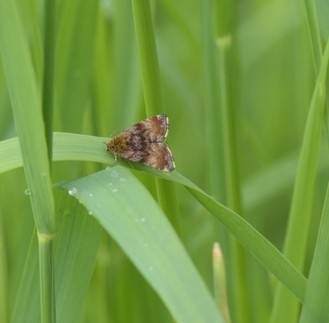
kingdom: Animalia
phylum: Arthropoda
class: Insecta
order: Lepidoptera
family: Noctuidae
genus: Panemeria
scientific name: Panemeria tenebrata
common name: Small yellow underwing
